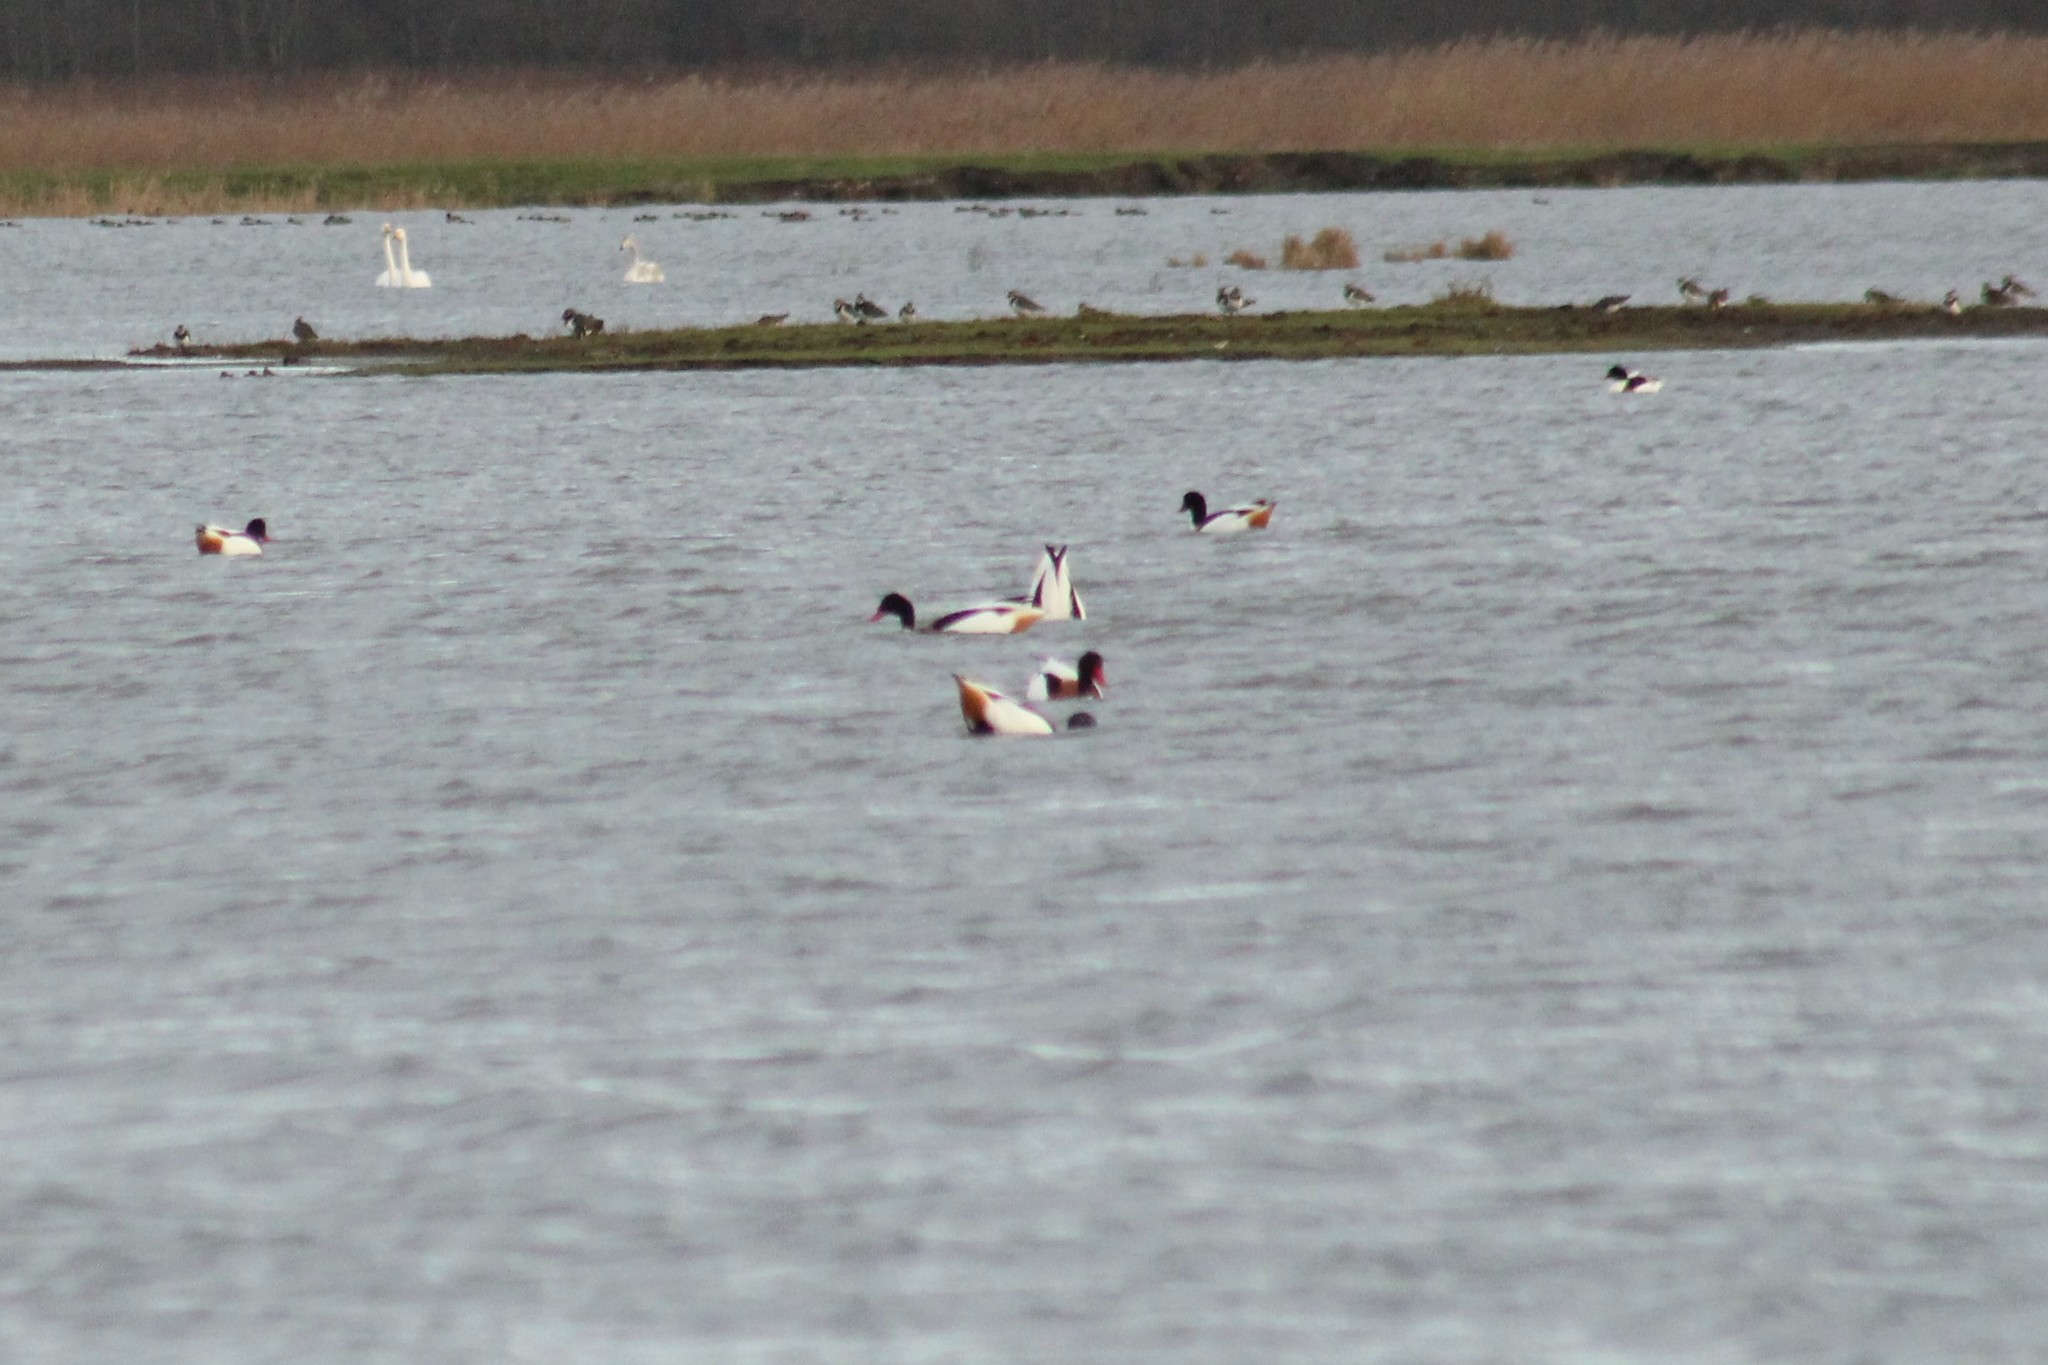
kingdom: Animalia
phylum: Chordata
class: Aves
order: Anseriformes
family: Anatidae
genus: Tadorna
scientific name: Tadorna tadorna
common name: Common shelduck
